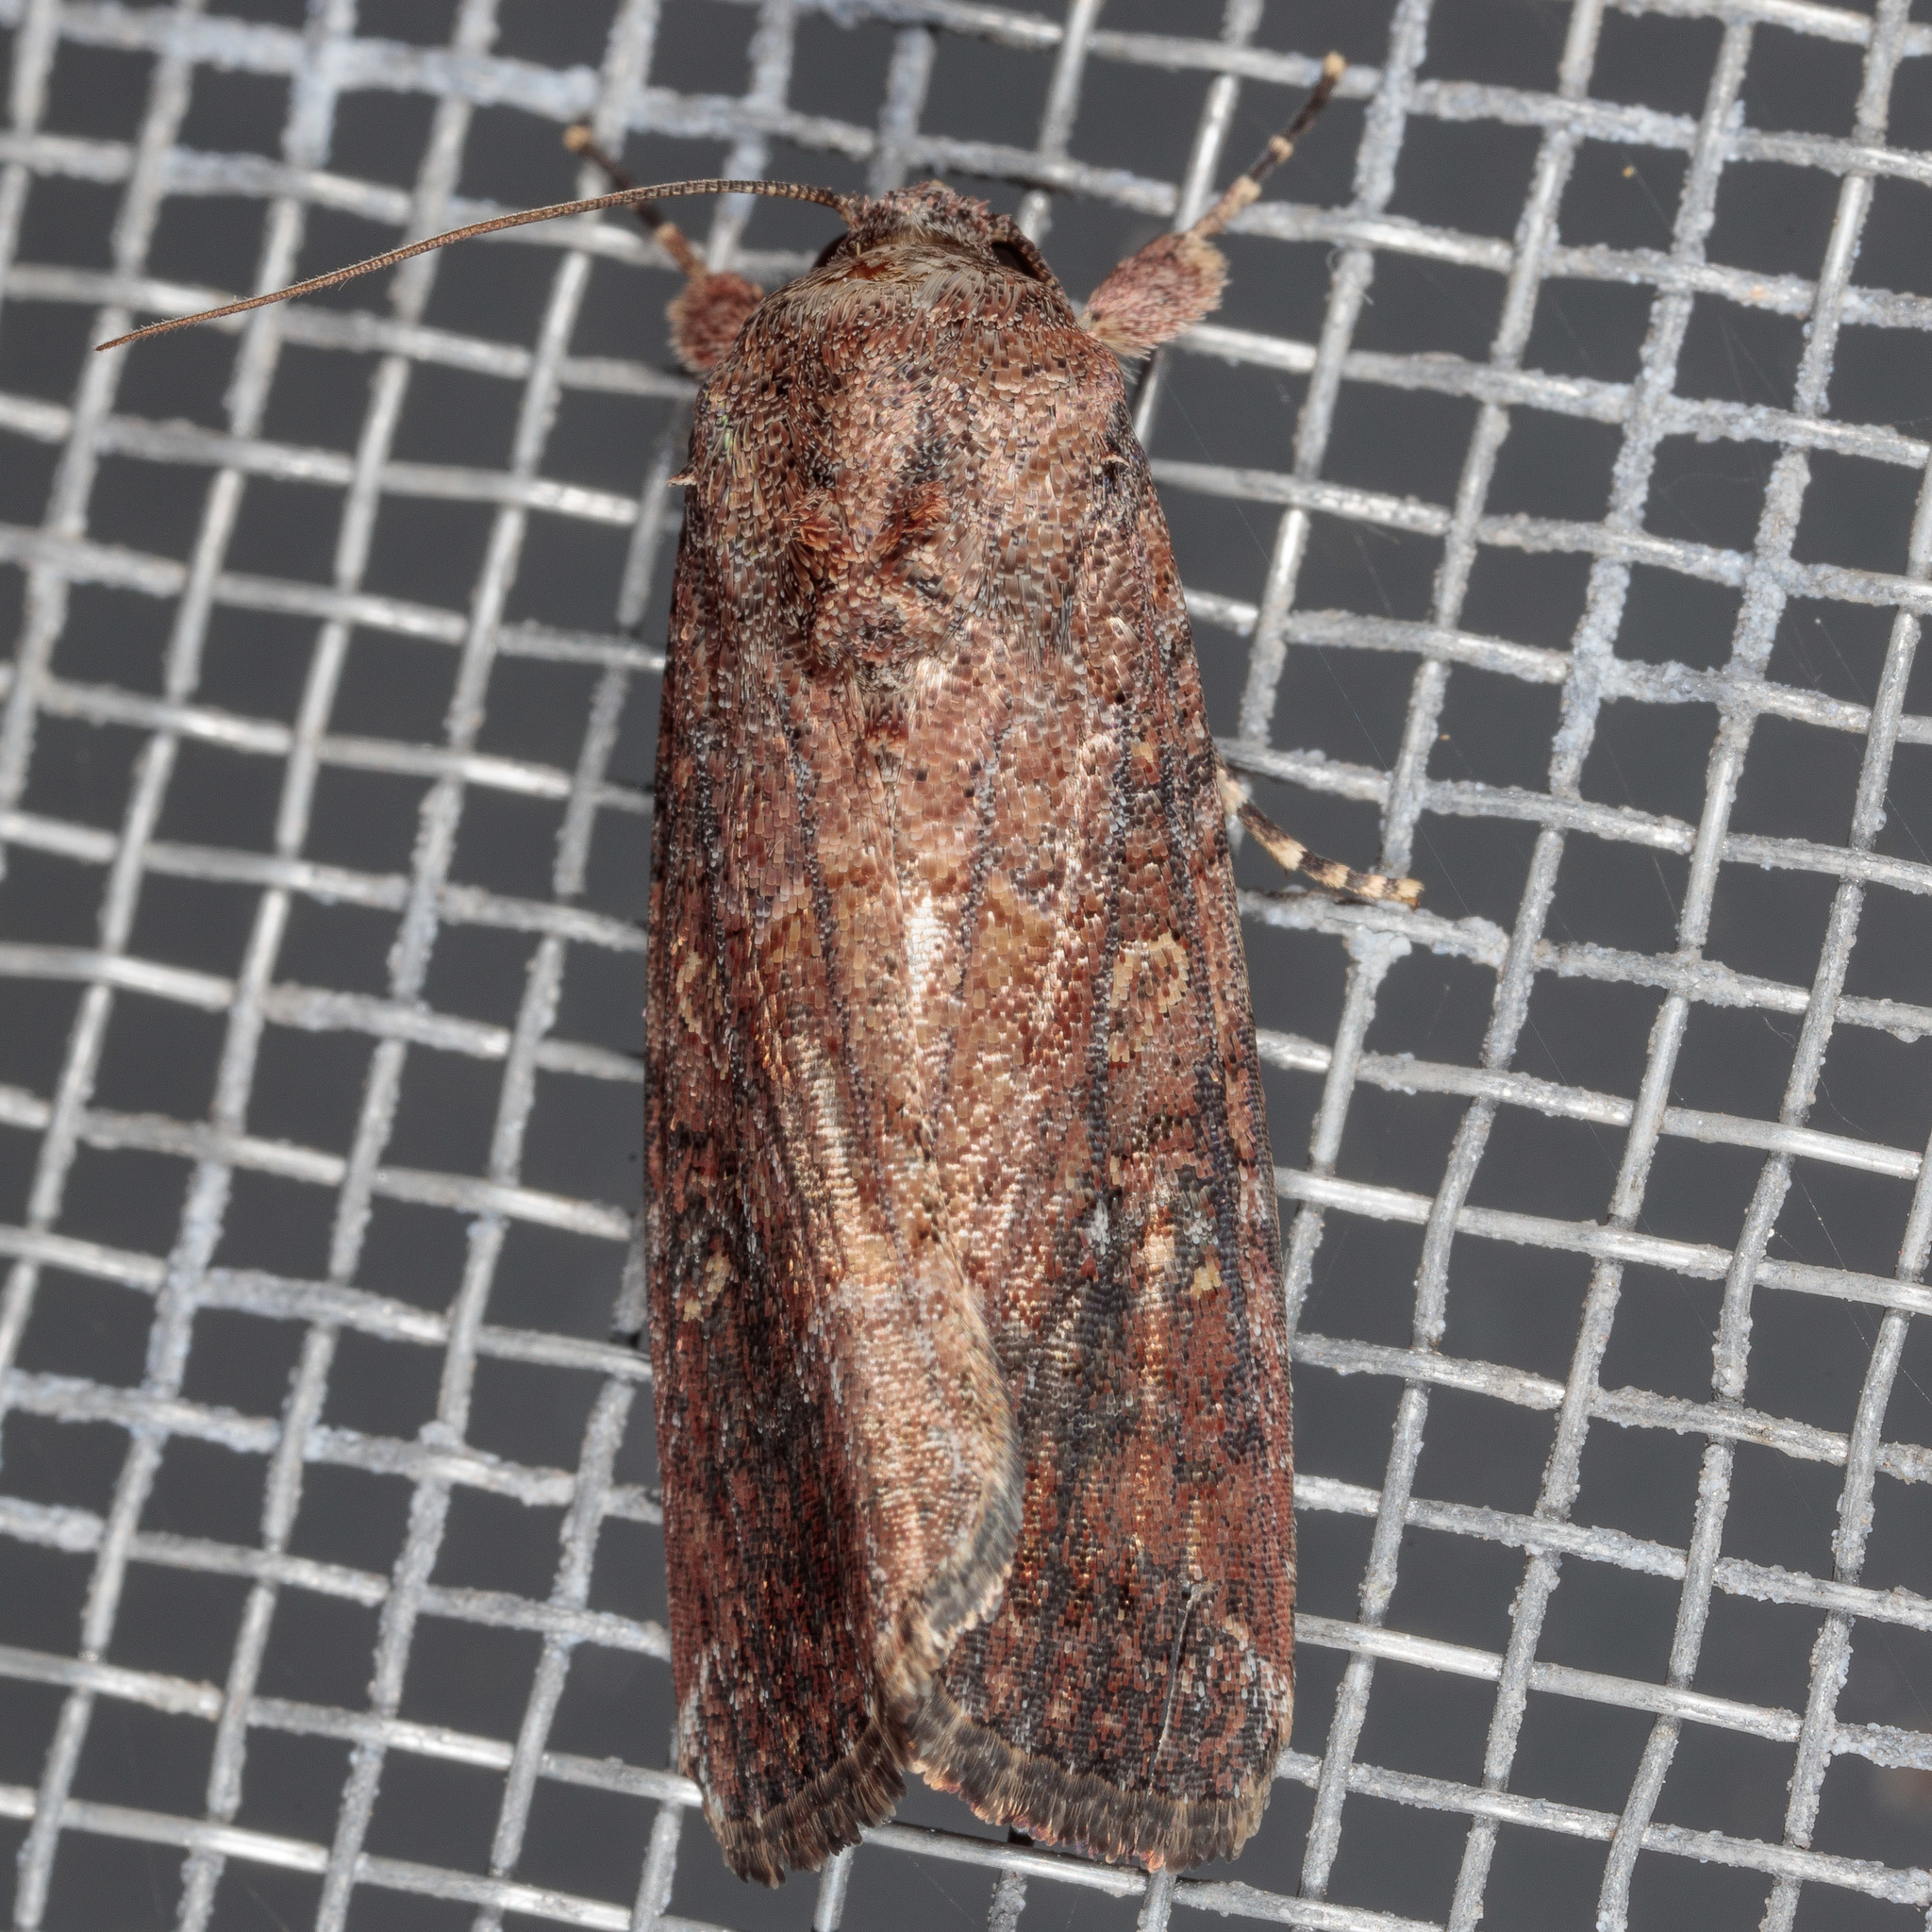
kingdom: Animalia
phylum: Arthropoda
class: Insecta
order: Lepidoptera
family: Noctuidae
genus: Spodoptera
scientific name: Spodoptera frugiperda
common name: Fall armyworm
